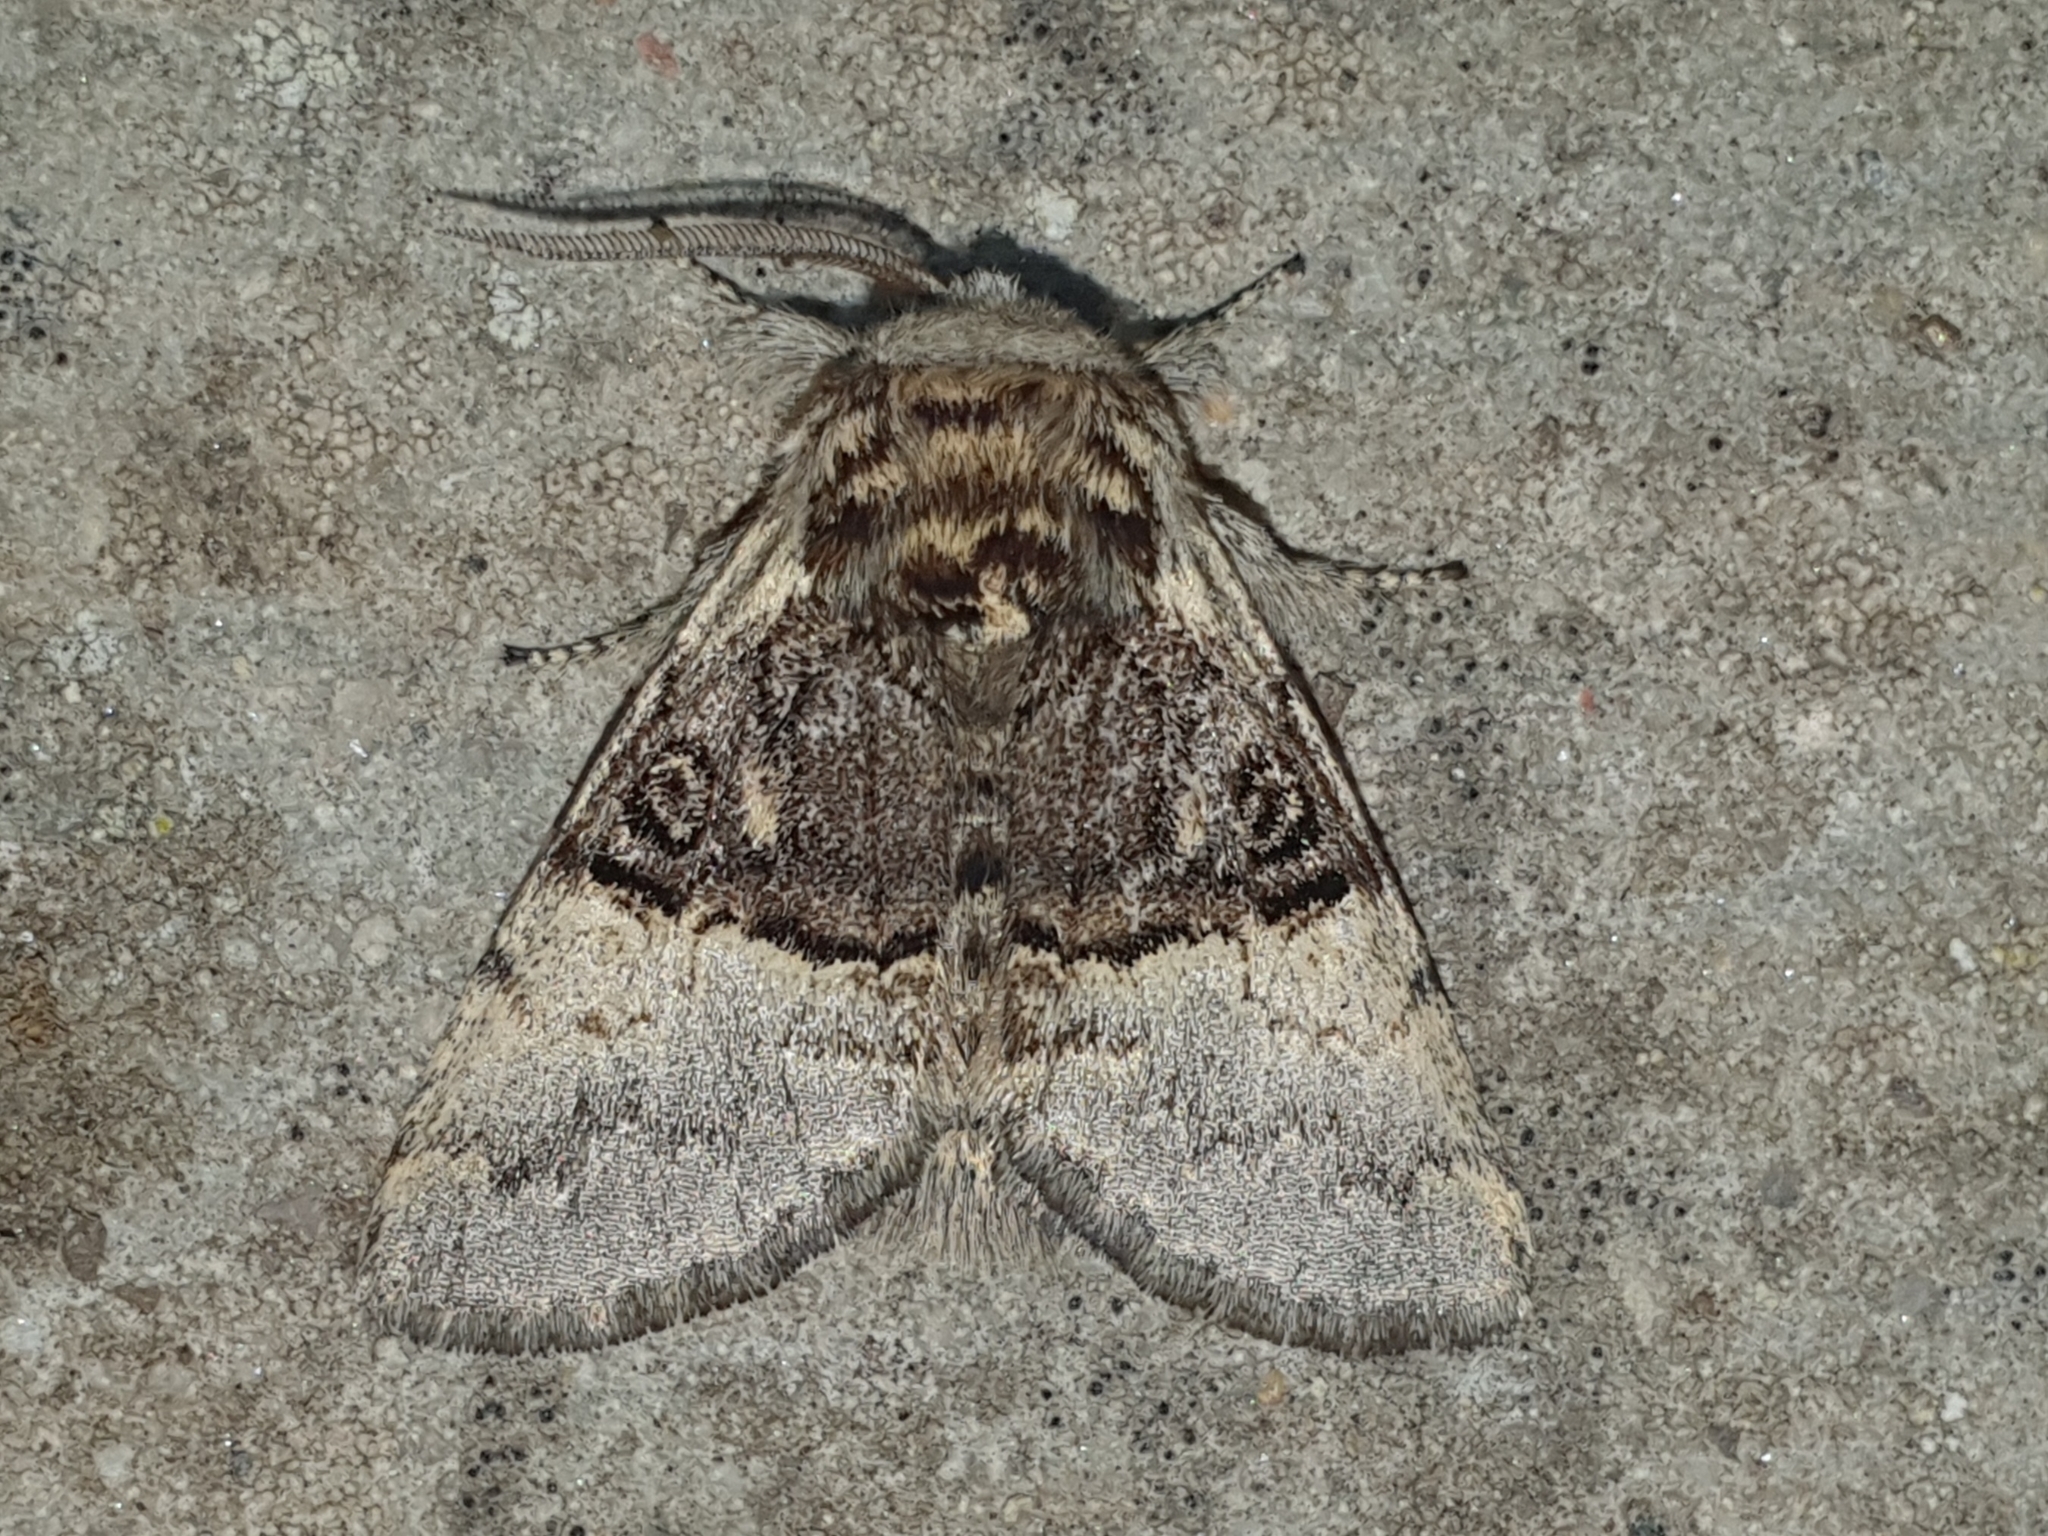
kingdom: Animalia
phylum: Arthropoda
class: Insecta
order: Lepidoptera
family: Noctuidae
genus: Colocasia
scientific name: Colocasia coryli
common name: Nut-tree tussock
